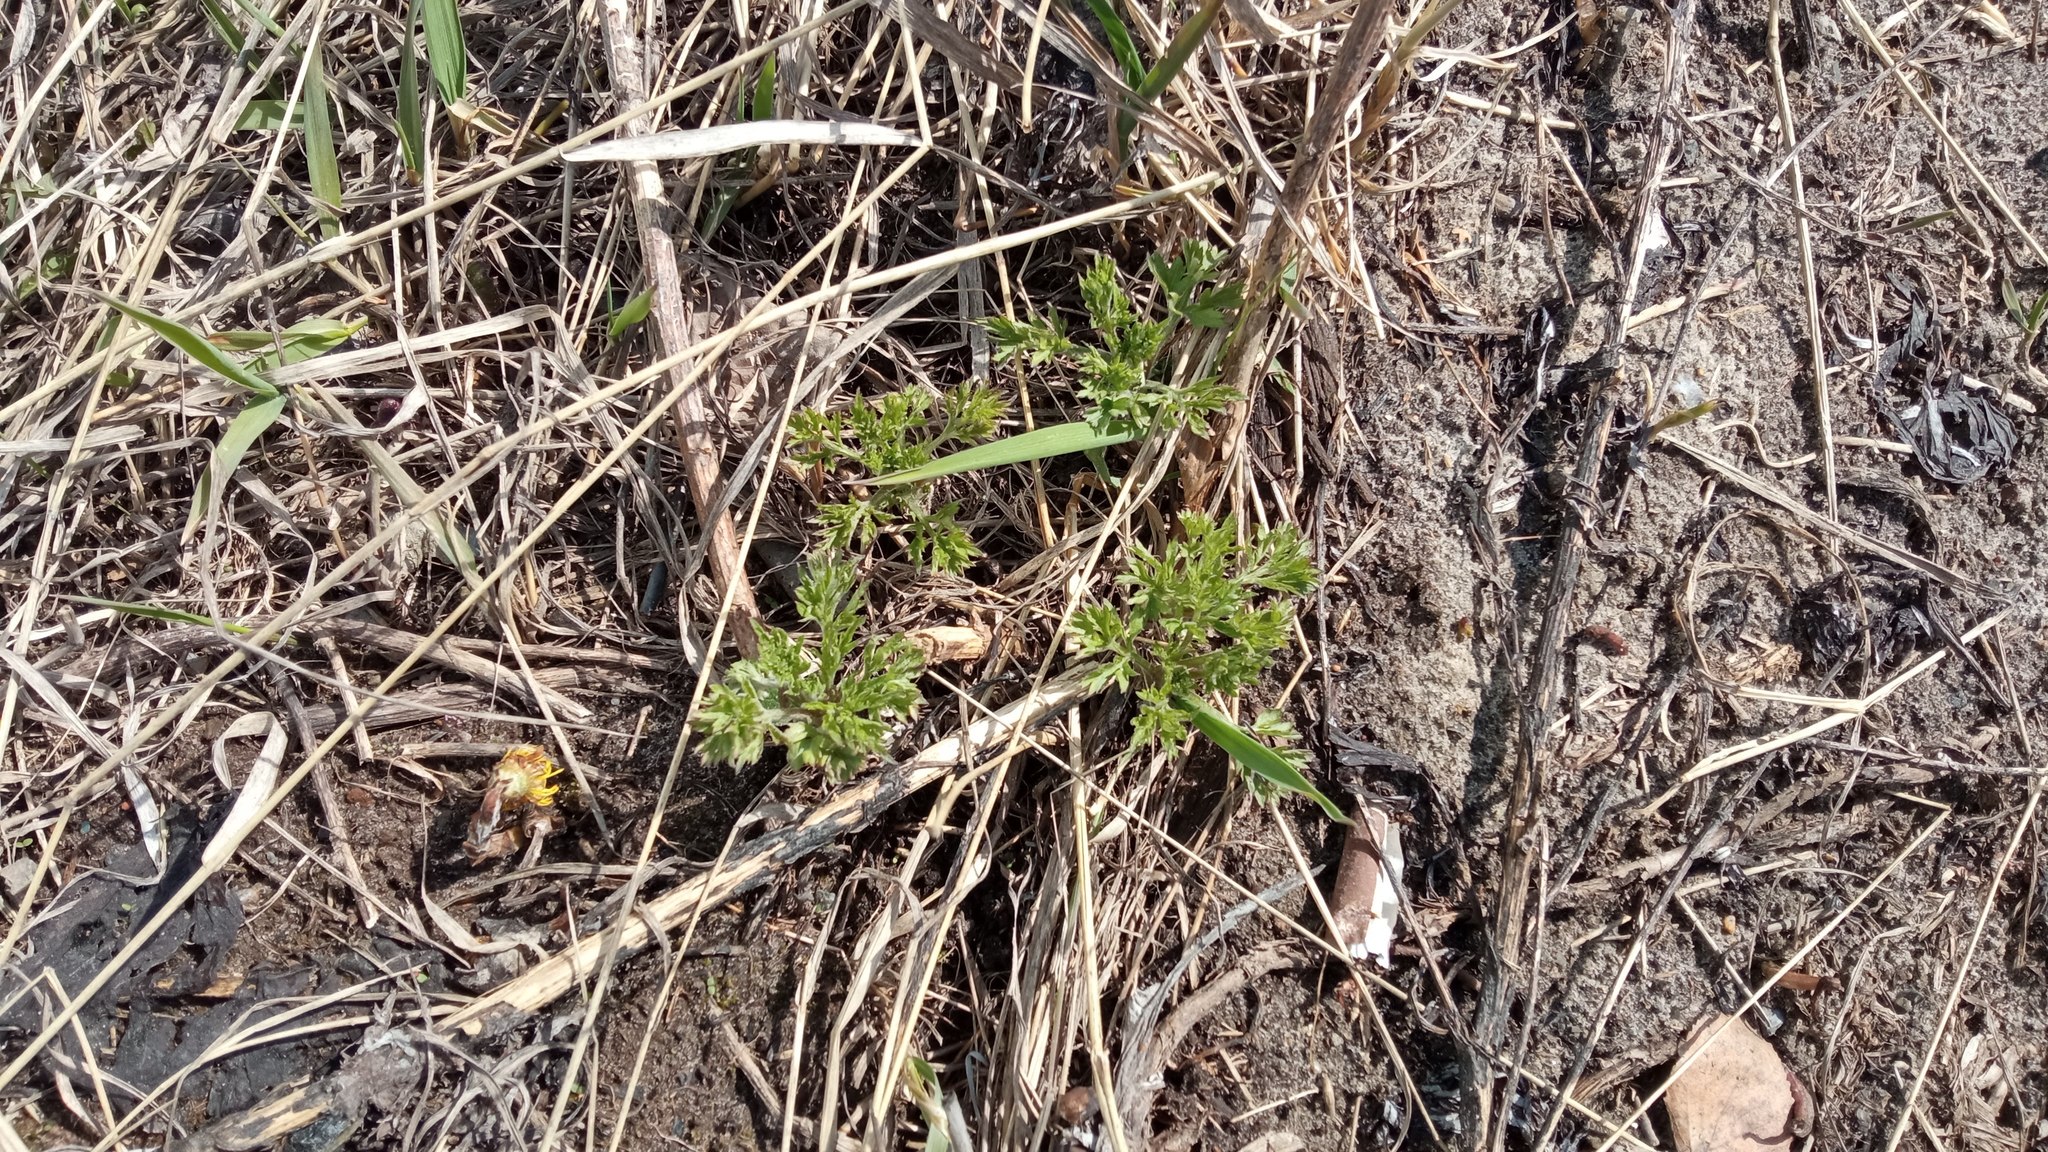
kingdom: Plantae
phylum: Tracheophyta
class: Magnoliopsida
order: Asterales
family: Asteraceae
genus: Artemisia
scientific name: Artemisia vulgaris
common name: Mugwort
